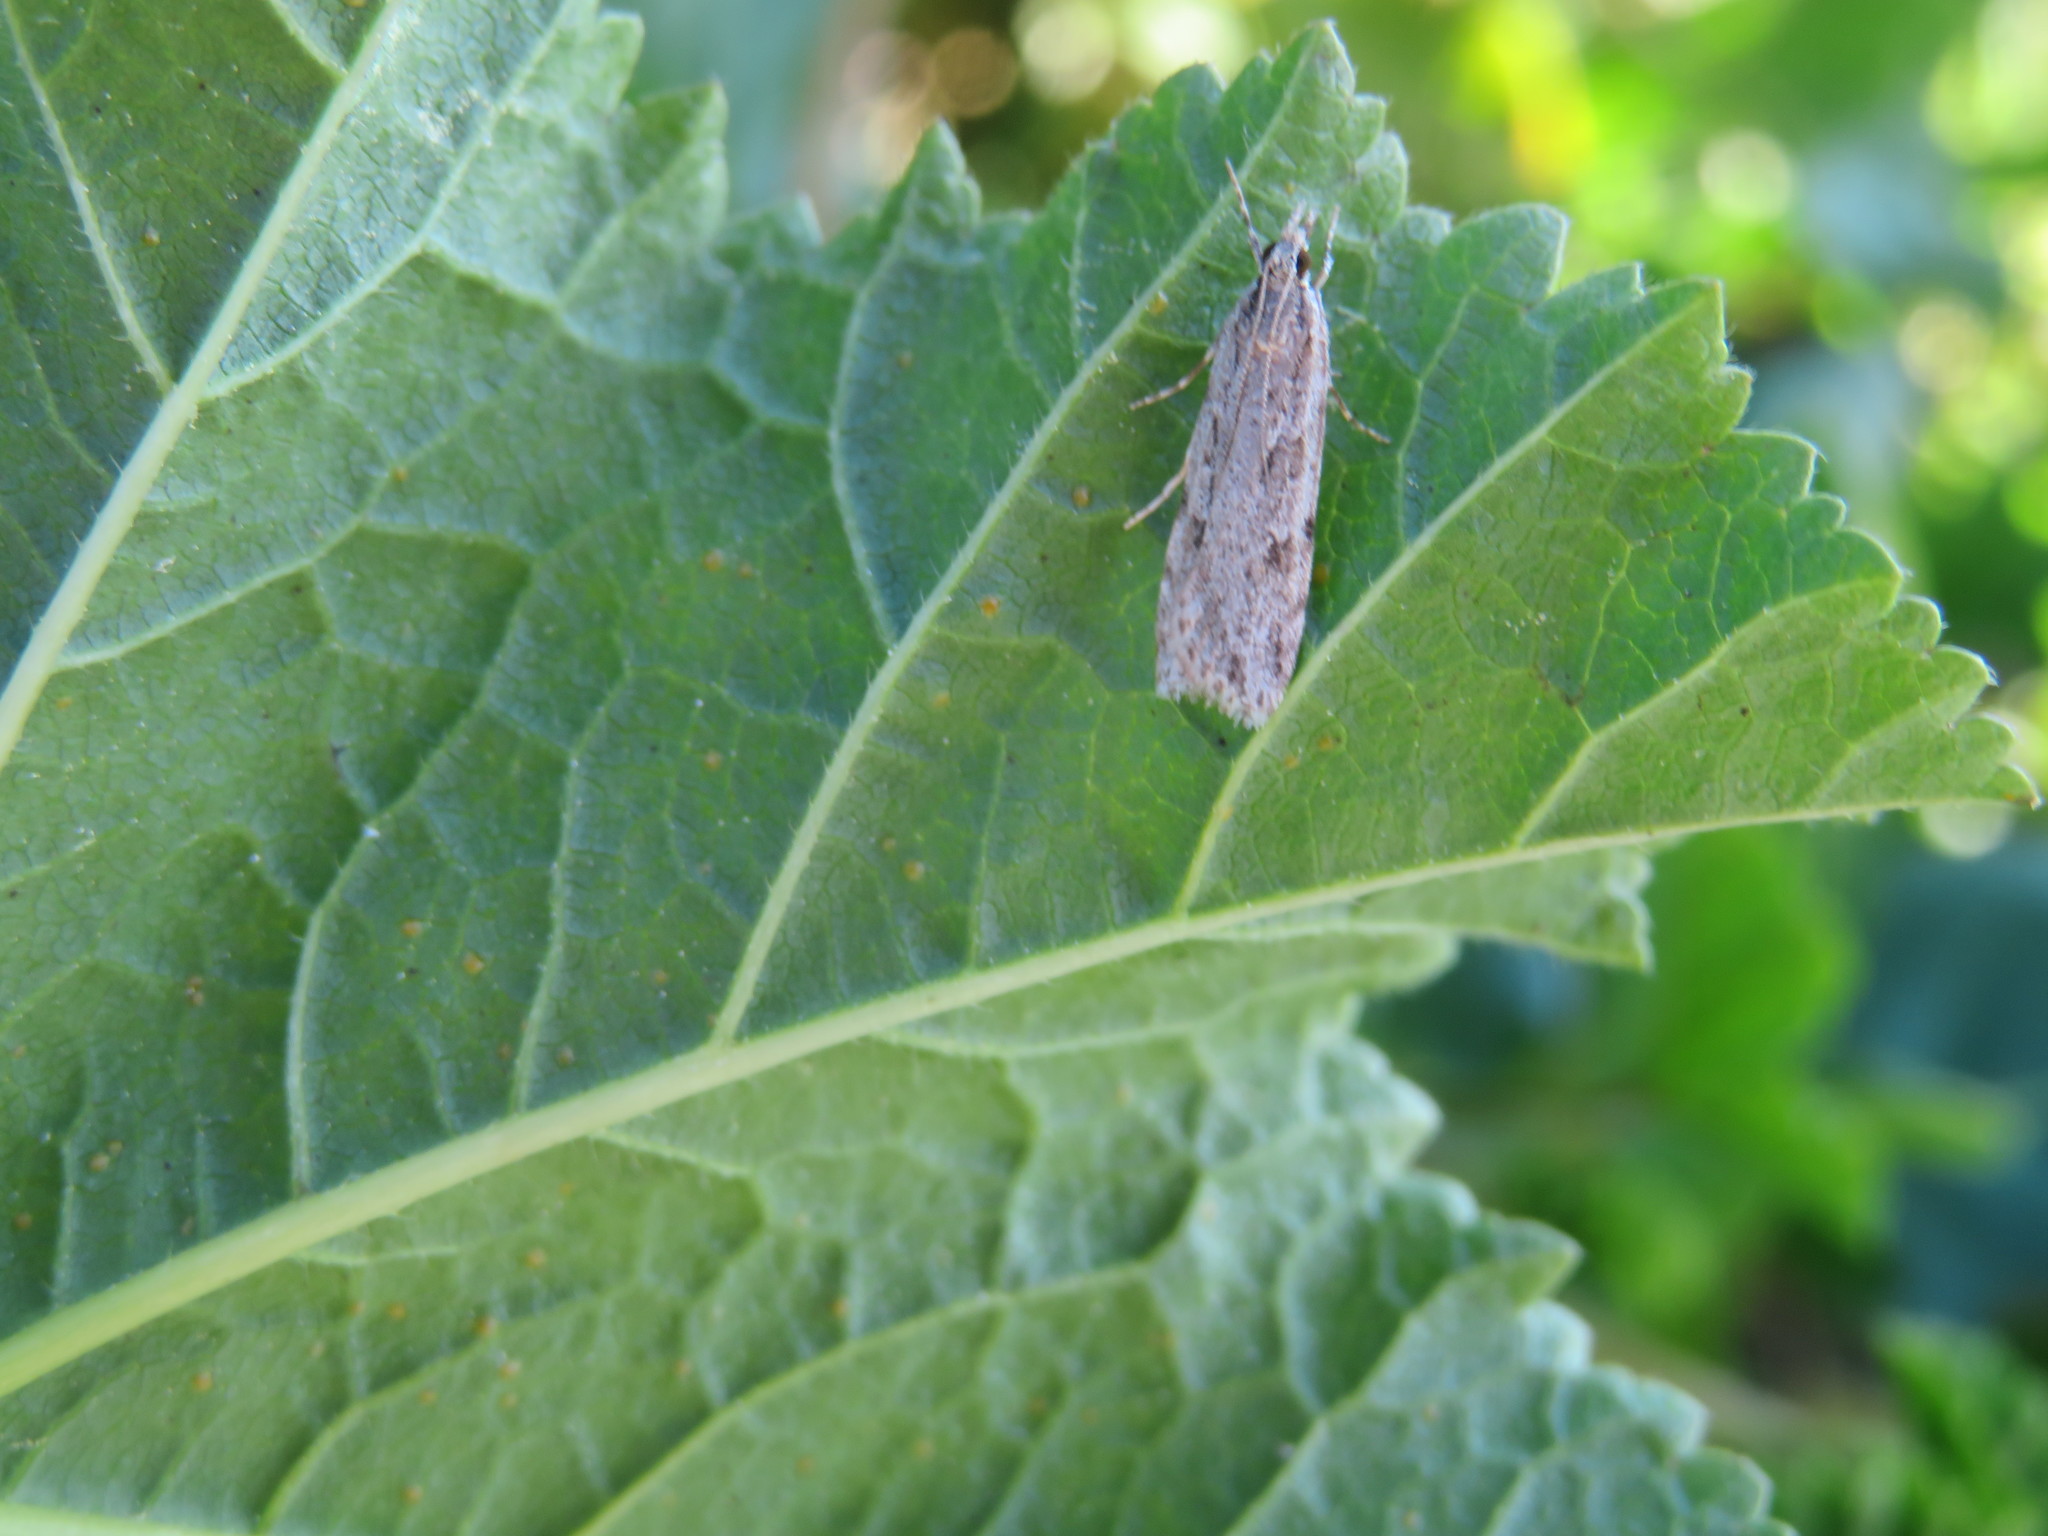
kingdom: Animalia
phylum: Arthropoda
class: Insecta
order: Lepidoptera
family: Crambidae
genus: Scoparia
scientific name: Scoparia chalicodes
